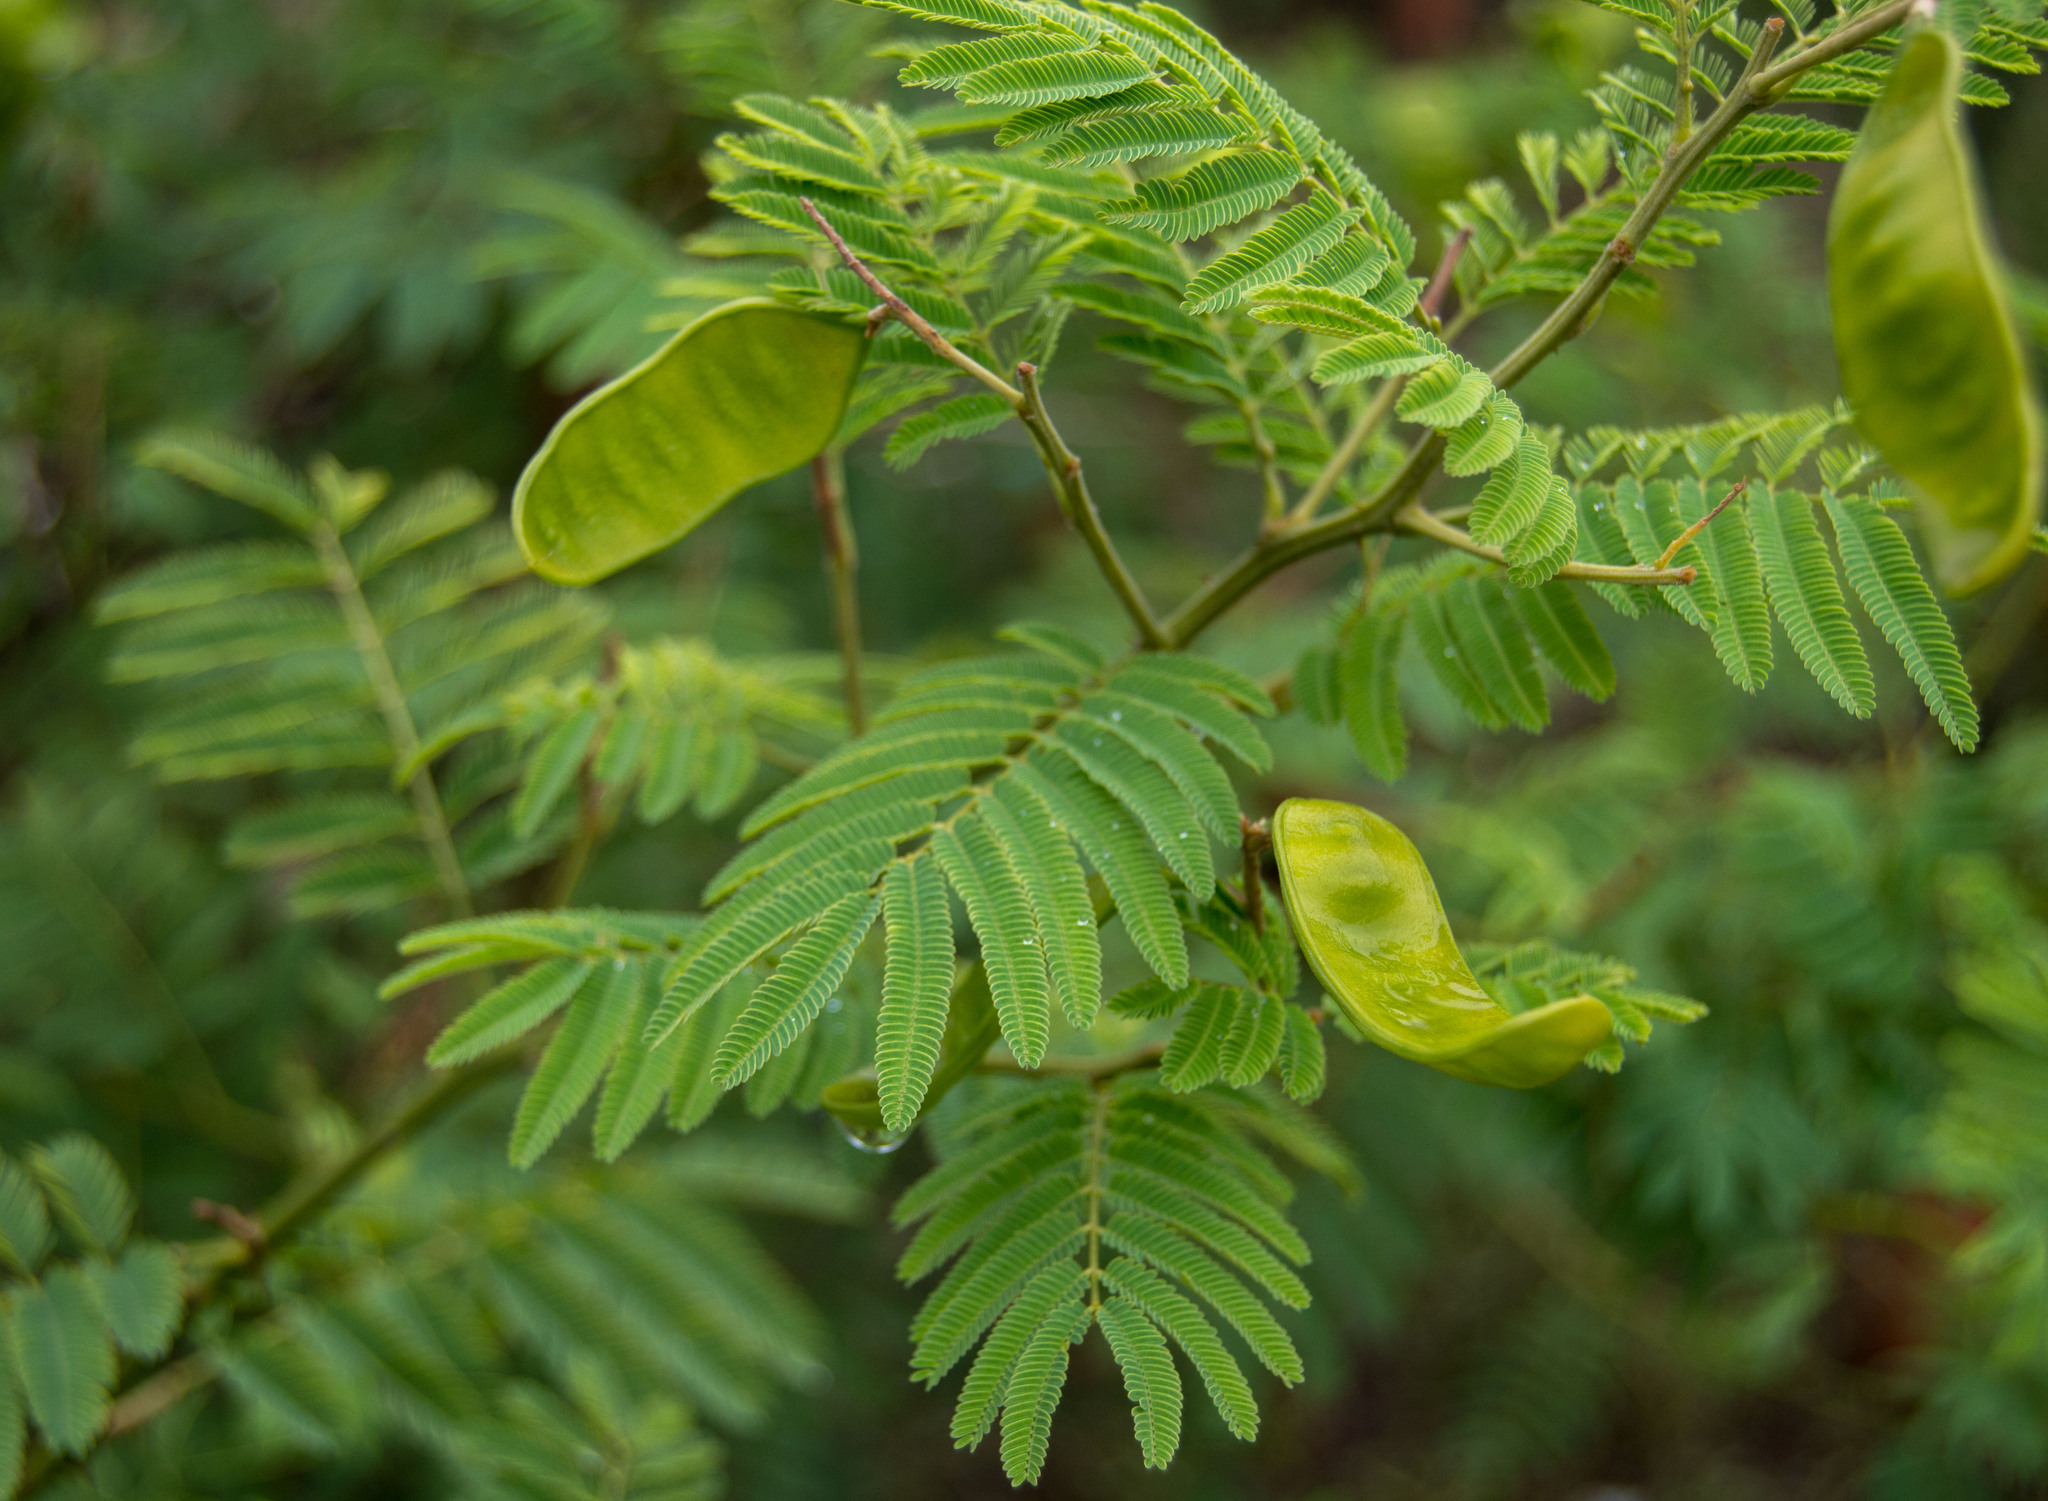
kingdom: Plantae
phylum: Tracheophyta
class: Magnoliopsida
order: Fabales
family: Fabaceae
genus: Senegalia
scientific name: Senegalia bonariensis
